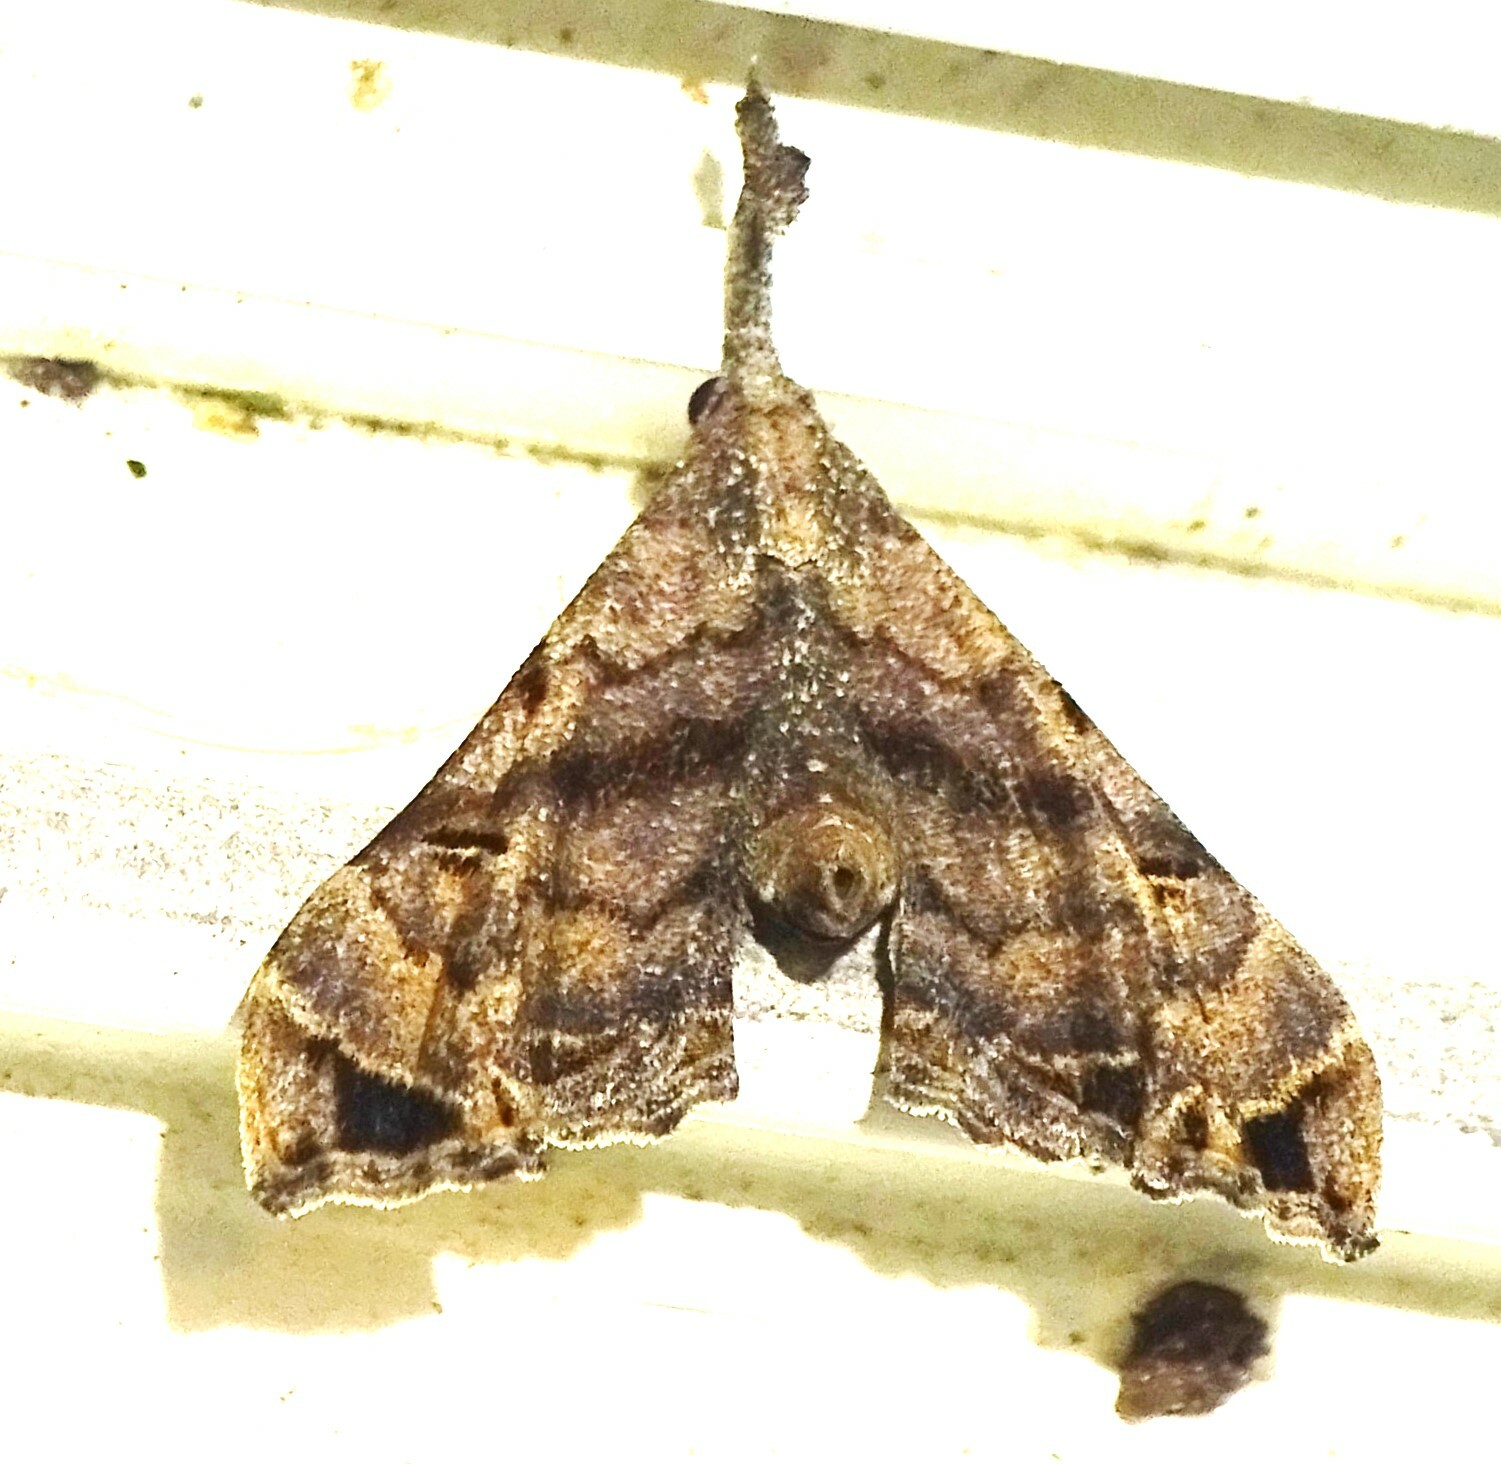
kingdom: Animalia
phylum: Arthropoda
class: Insecta
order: Lepidoptera
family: Erebidae
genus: Palthis
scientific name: Palthis asopialis
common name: Faint-spotted palthis moth
